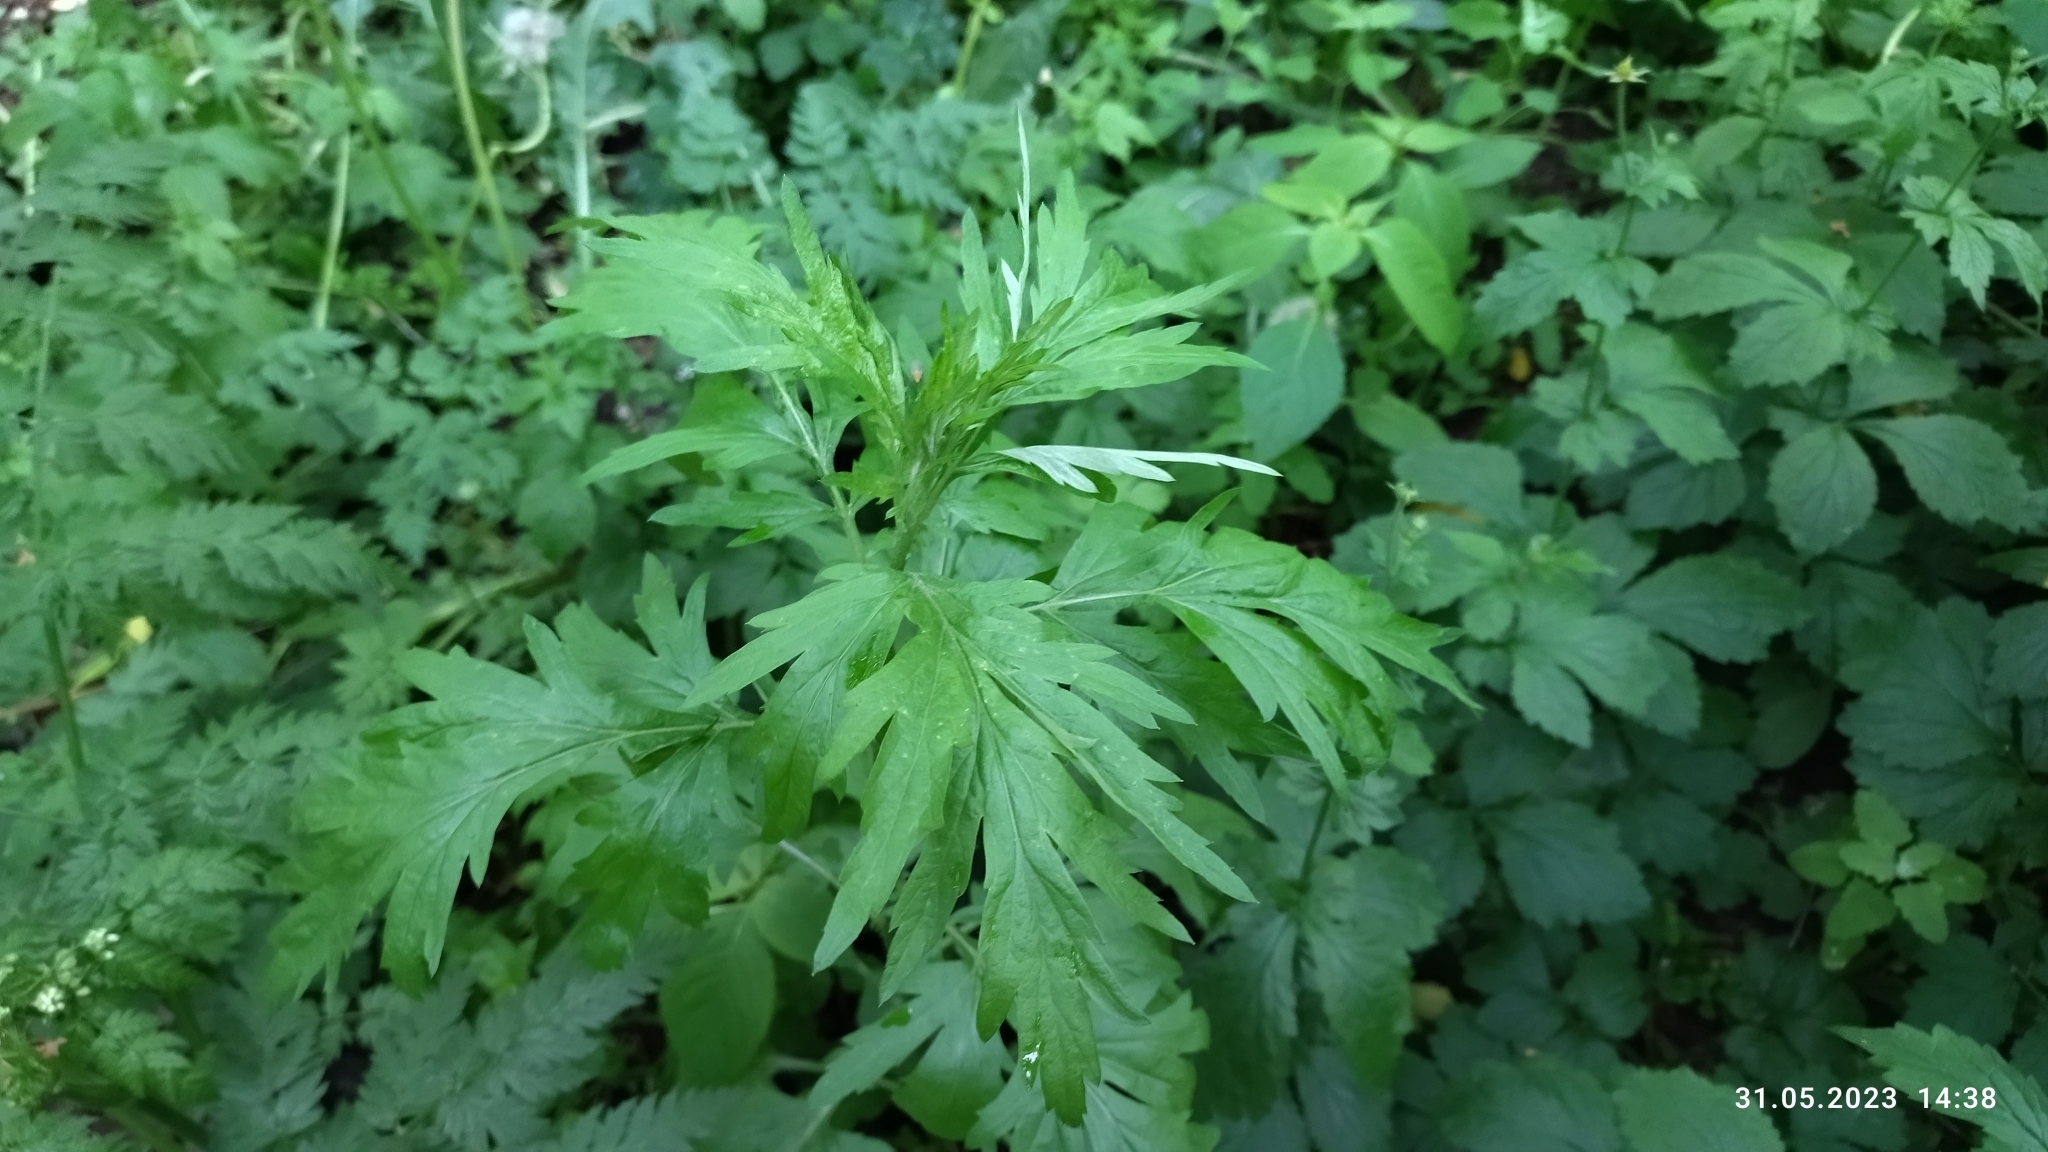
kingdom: Plantae
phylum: Tracheophyta
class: Magnoliopsida
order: Asterales
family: Asteraceae
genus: Artemisia
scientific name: Artemisia vulgaris
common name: Mugwort
